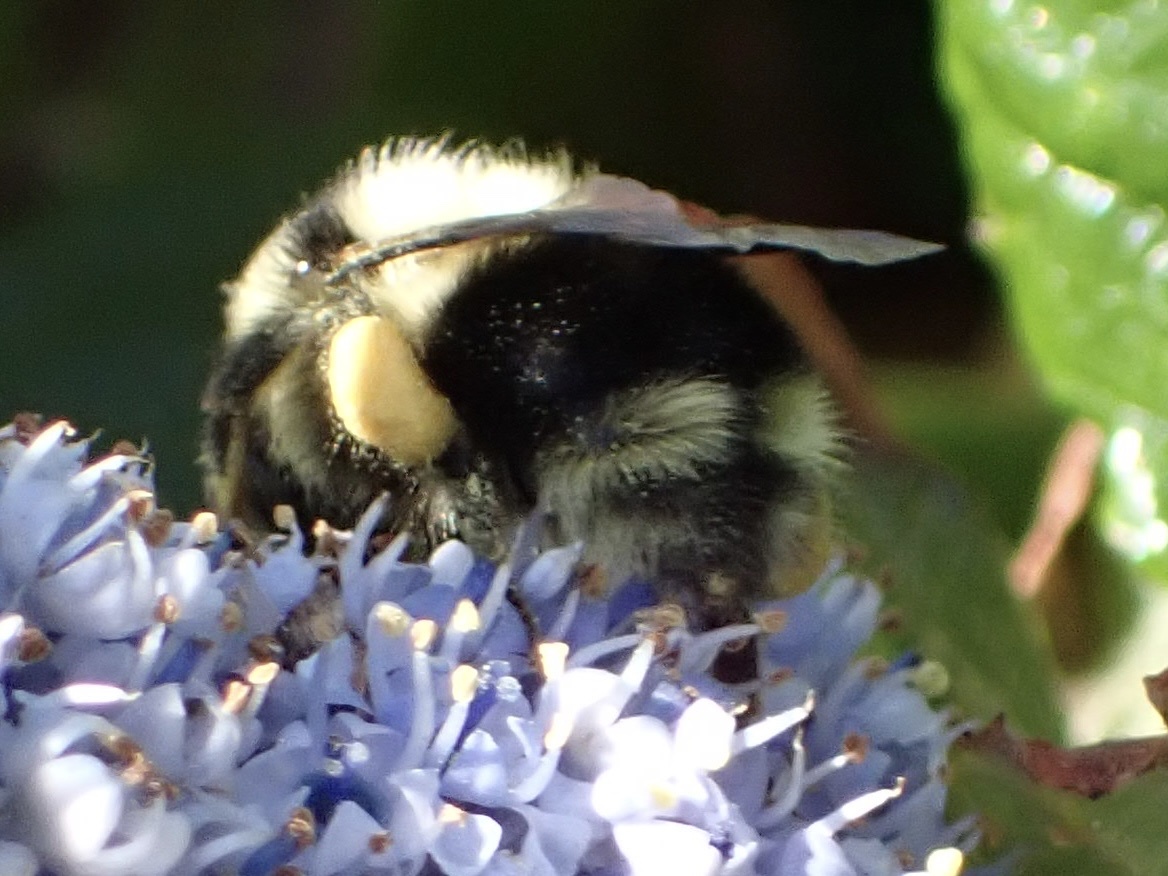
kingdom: Animalia
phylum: Arthropoda
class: Insecta
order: Hymenoptera
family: Apidae
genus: Bombus
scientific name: Bombus melanopygus
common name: Black tail bumble bee
